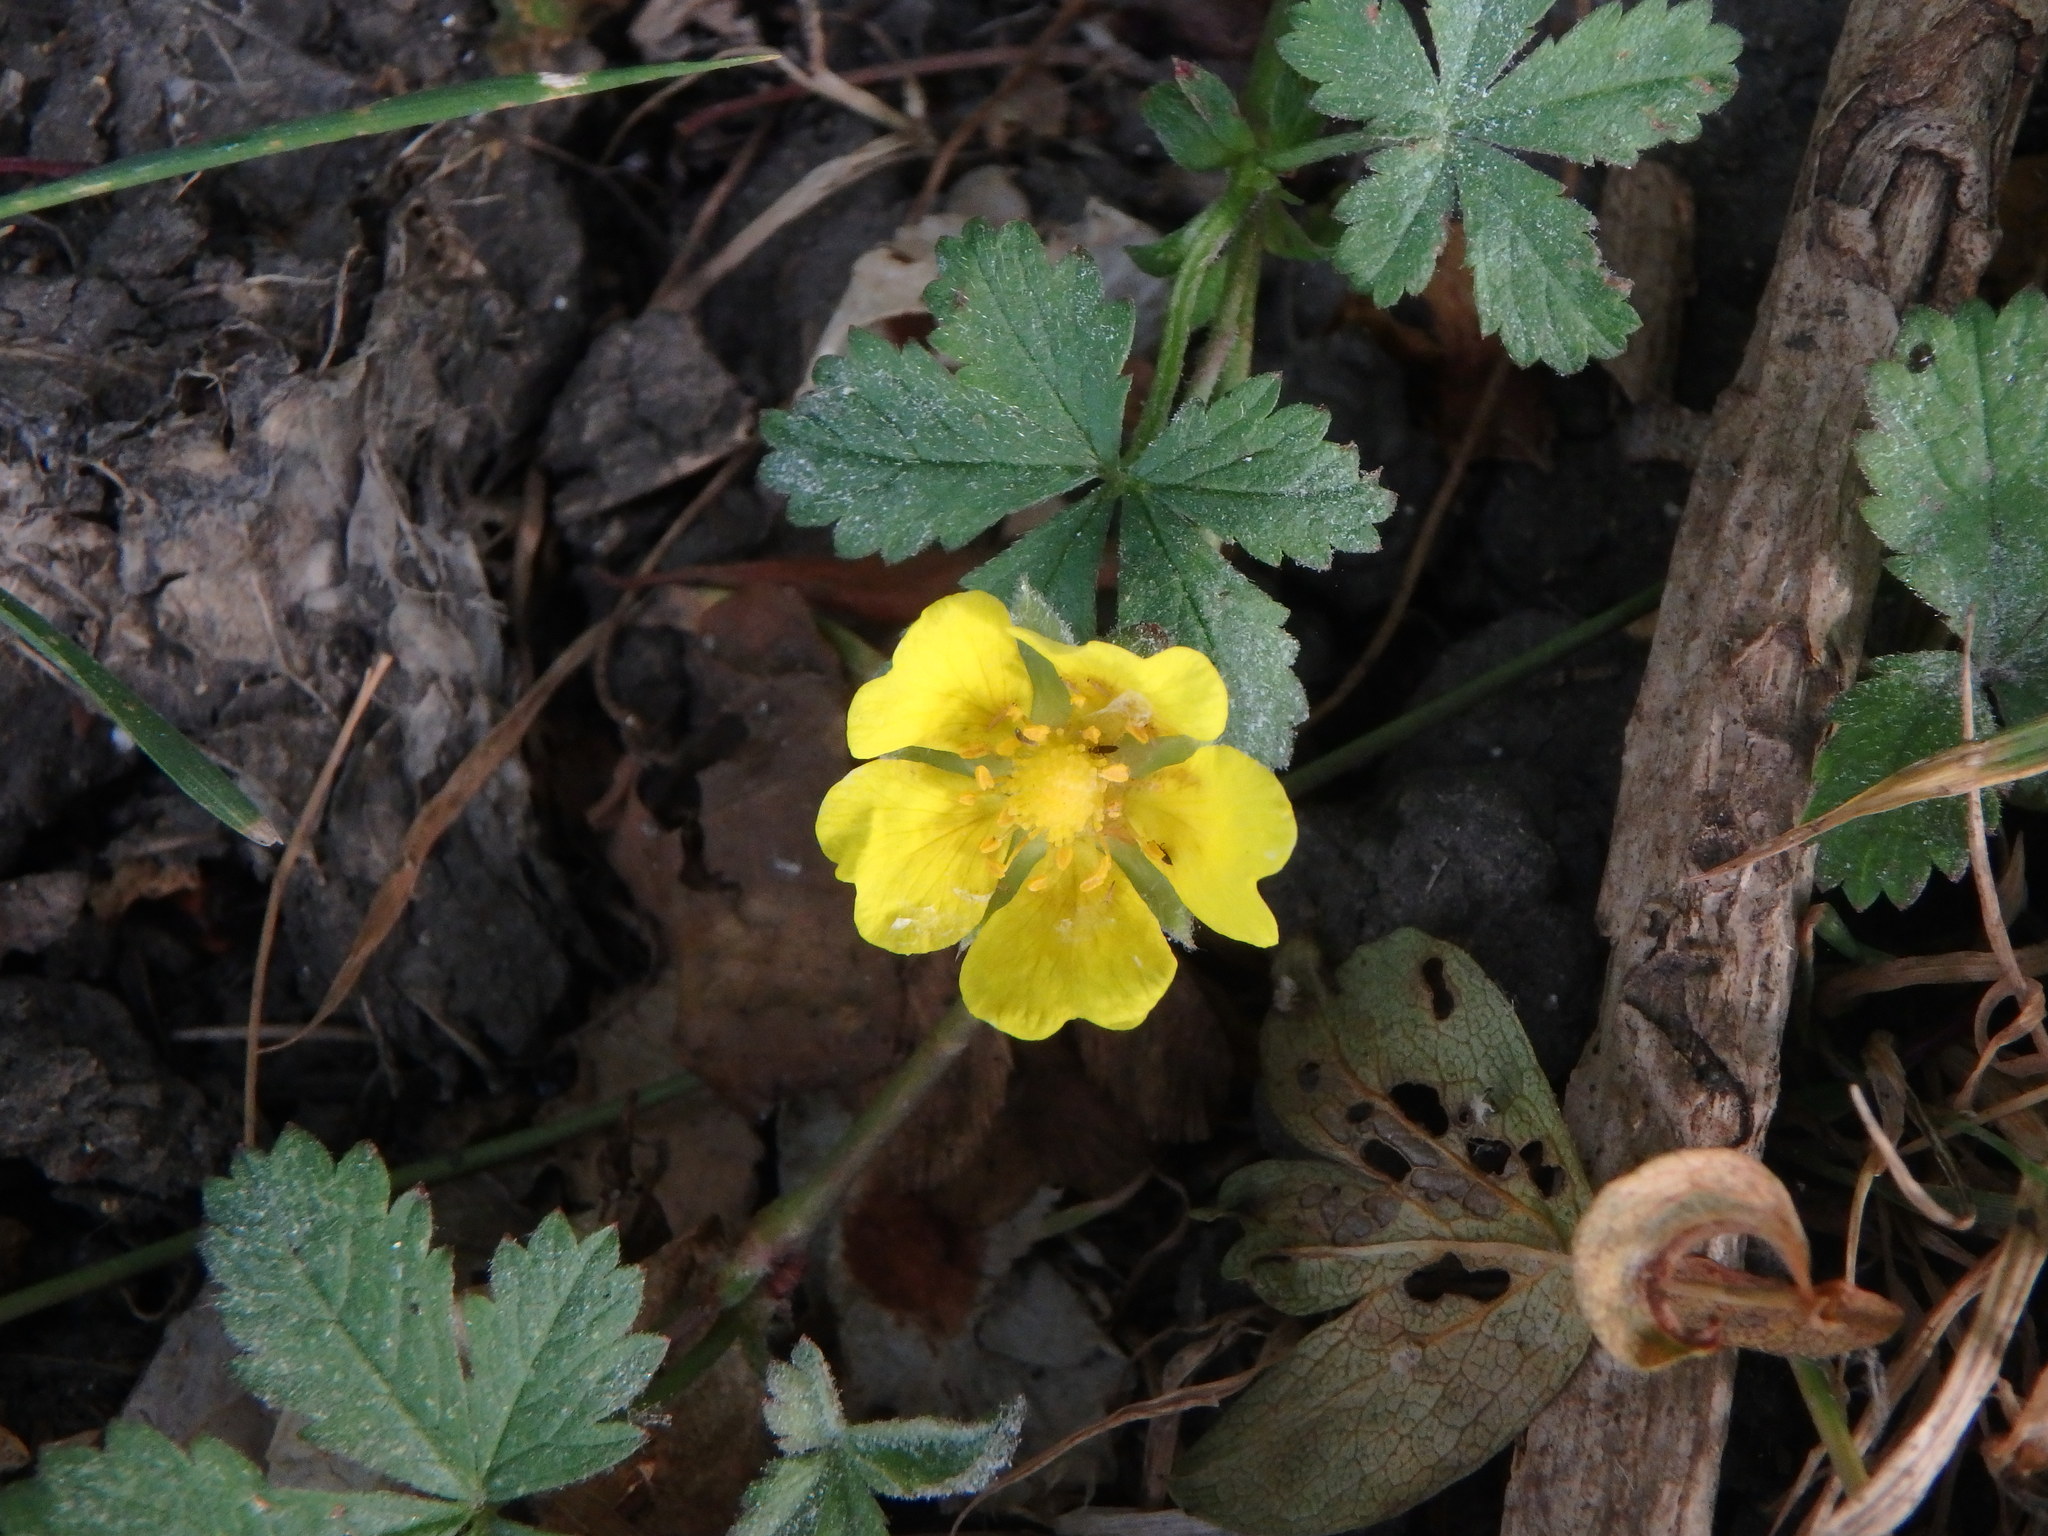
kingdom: Plantae
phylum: Tracheophyta
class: Magnoliopsida
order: Rosales
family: Rosaceae
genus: Potentilla
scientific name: Potentilla reptans
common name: Creeping cinquefoil
